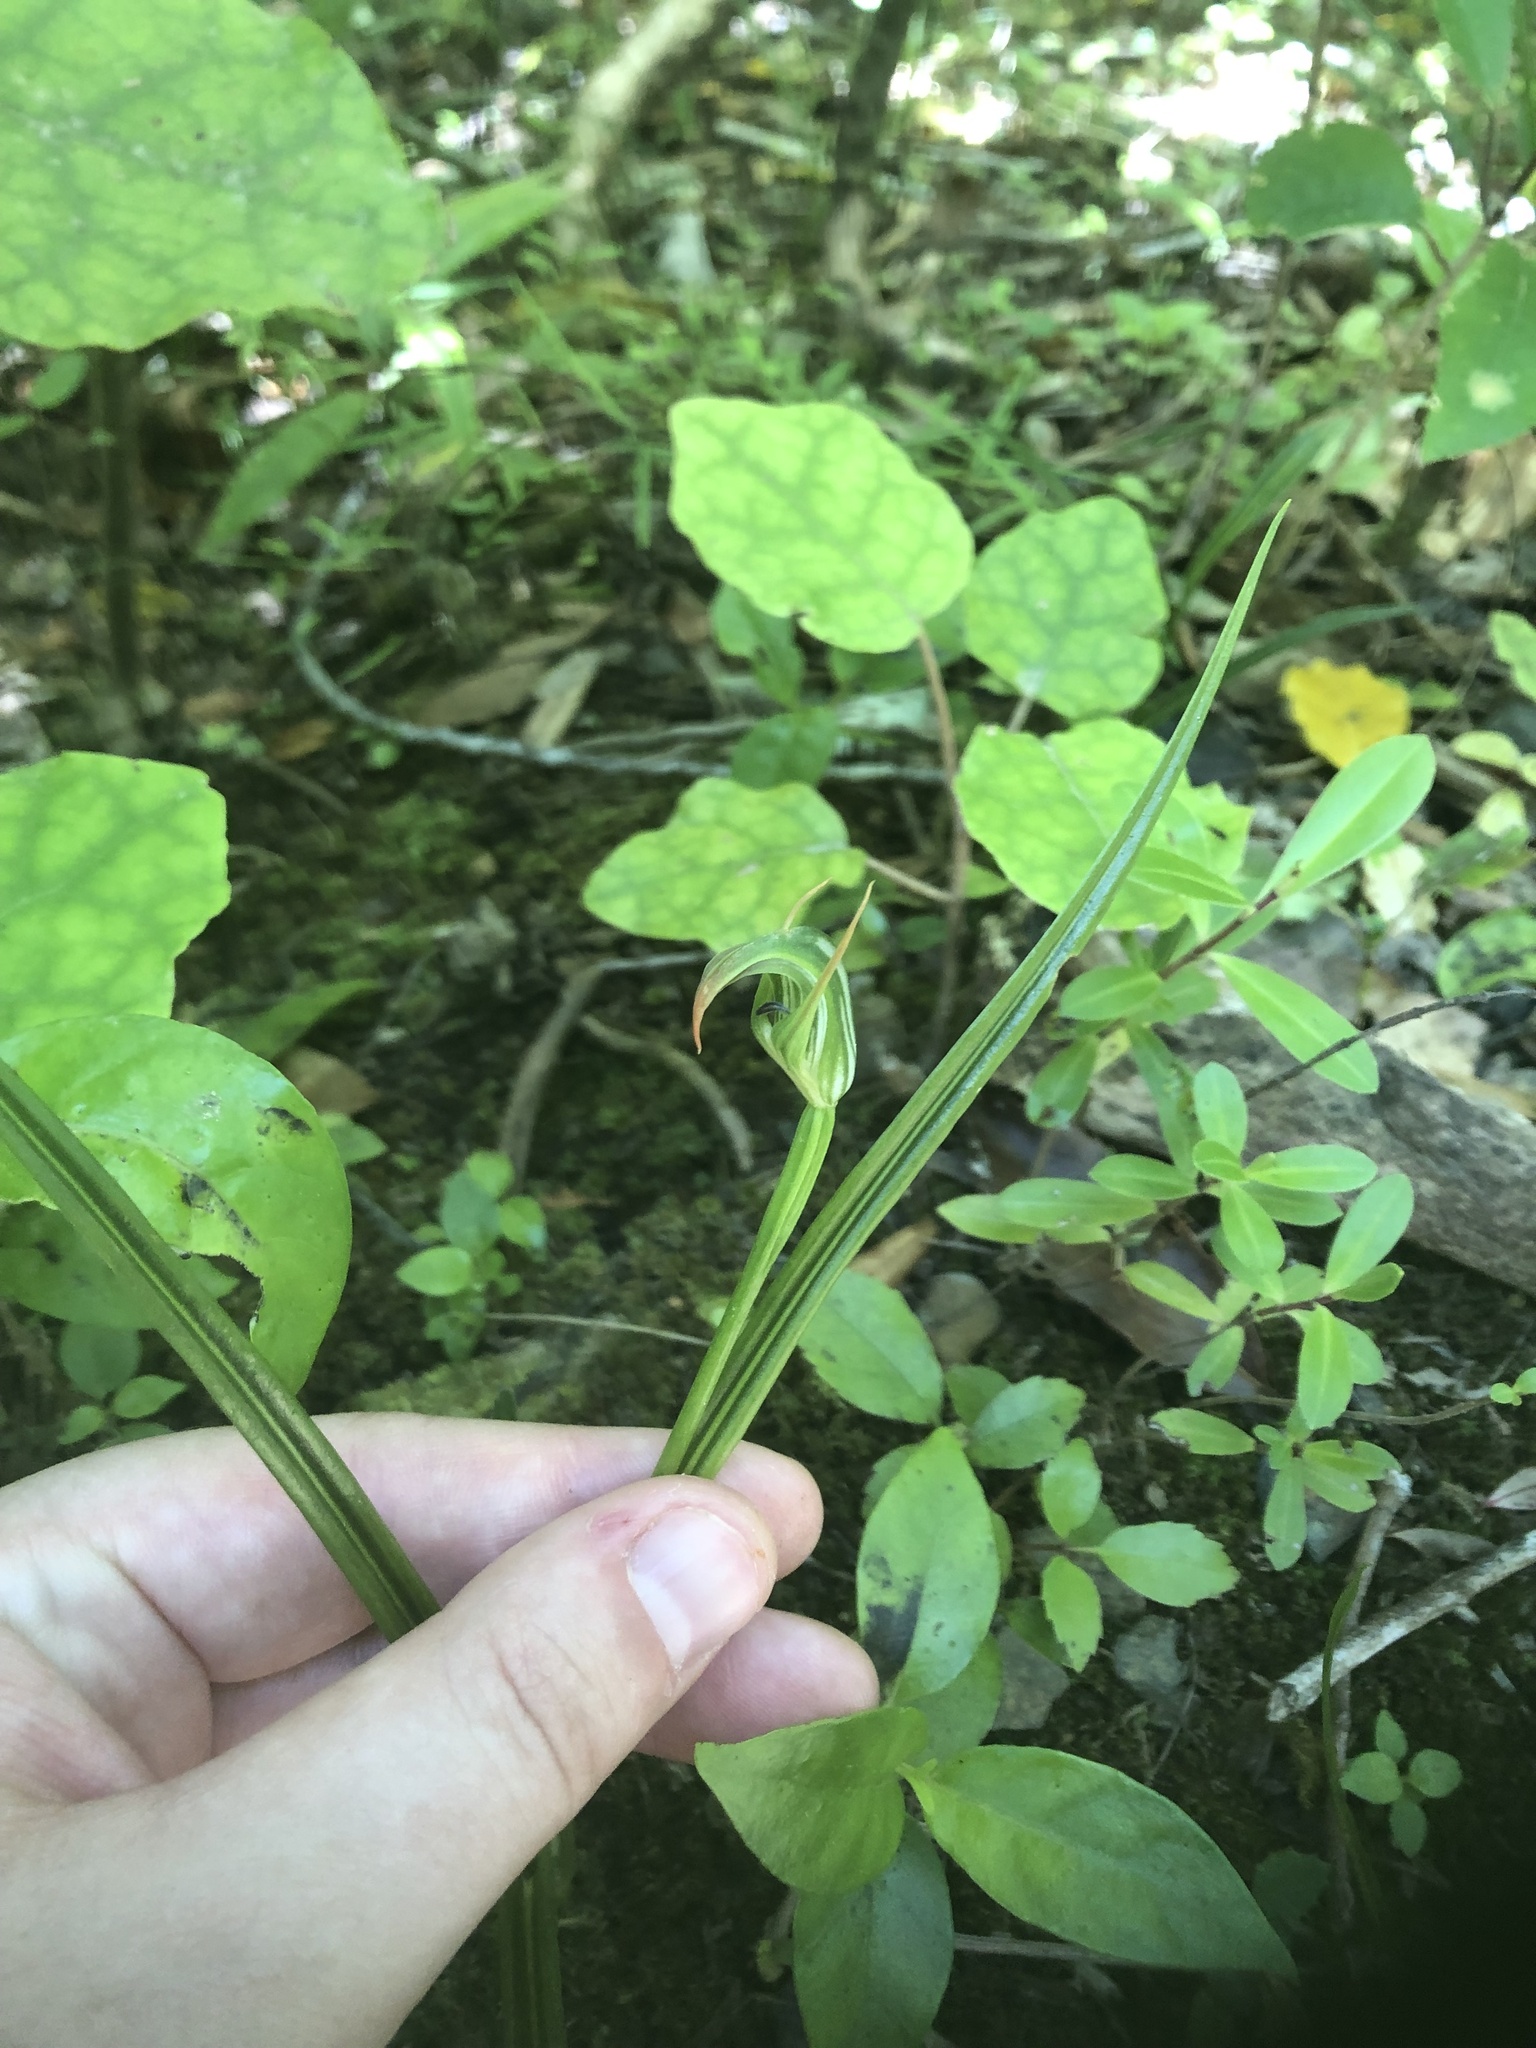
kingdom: Plantae
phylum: Tracheophyta
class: Liliopsida
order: Asparagales
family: Orchidaceae
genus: Pterostylis
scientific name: Pterostylis graminea
